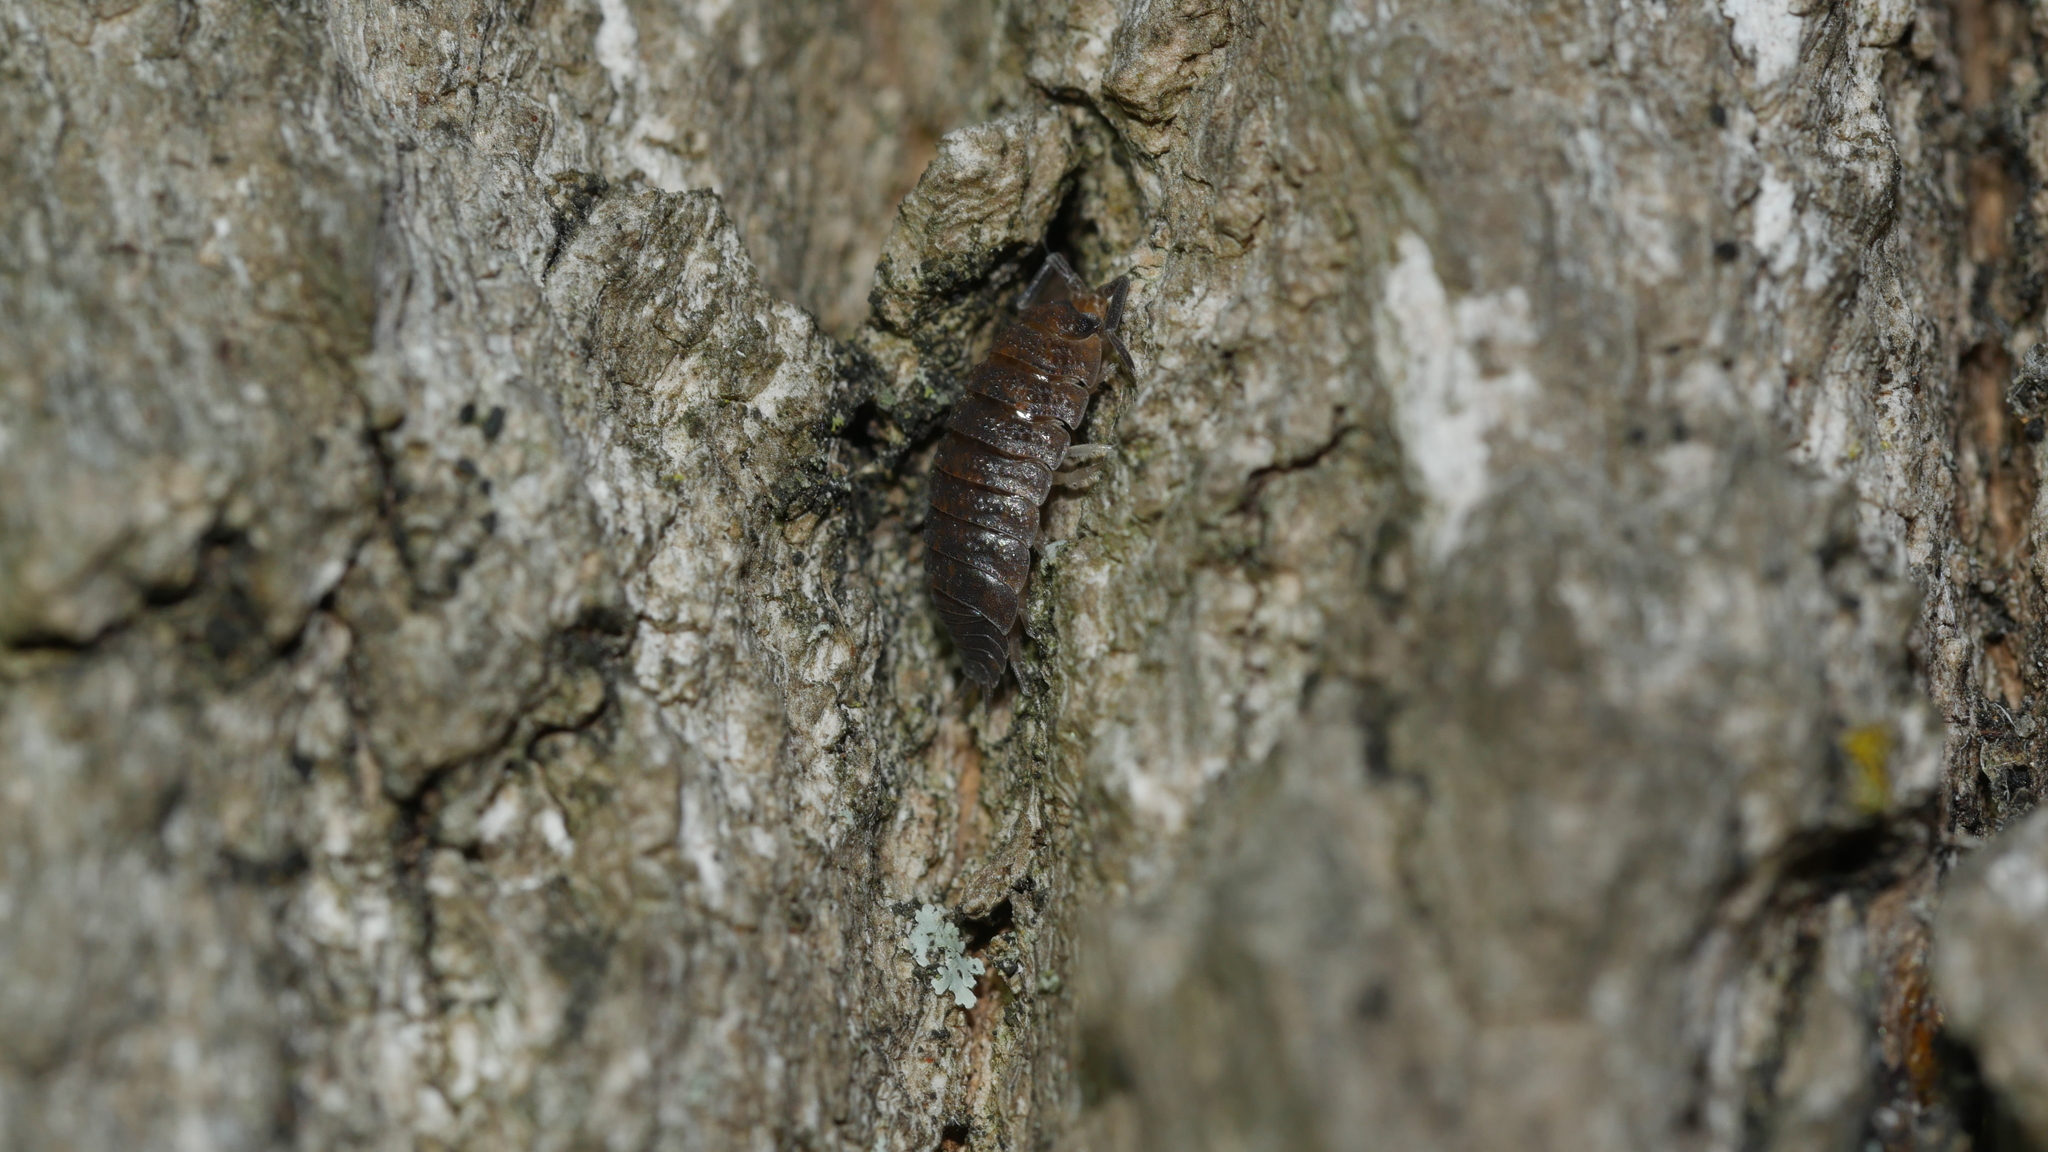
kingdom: Animalia
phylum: Arthropoda
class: Malacostraca
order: Isopoda
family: Porcellionidae
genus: Porcellio
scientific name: Porcellio scaber
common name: Common rough woodlouse
